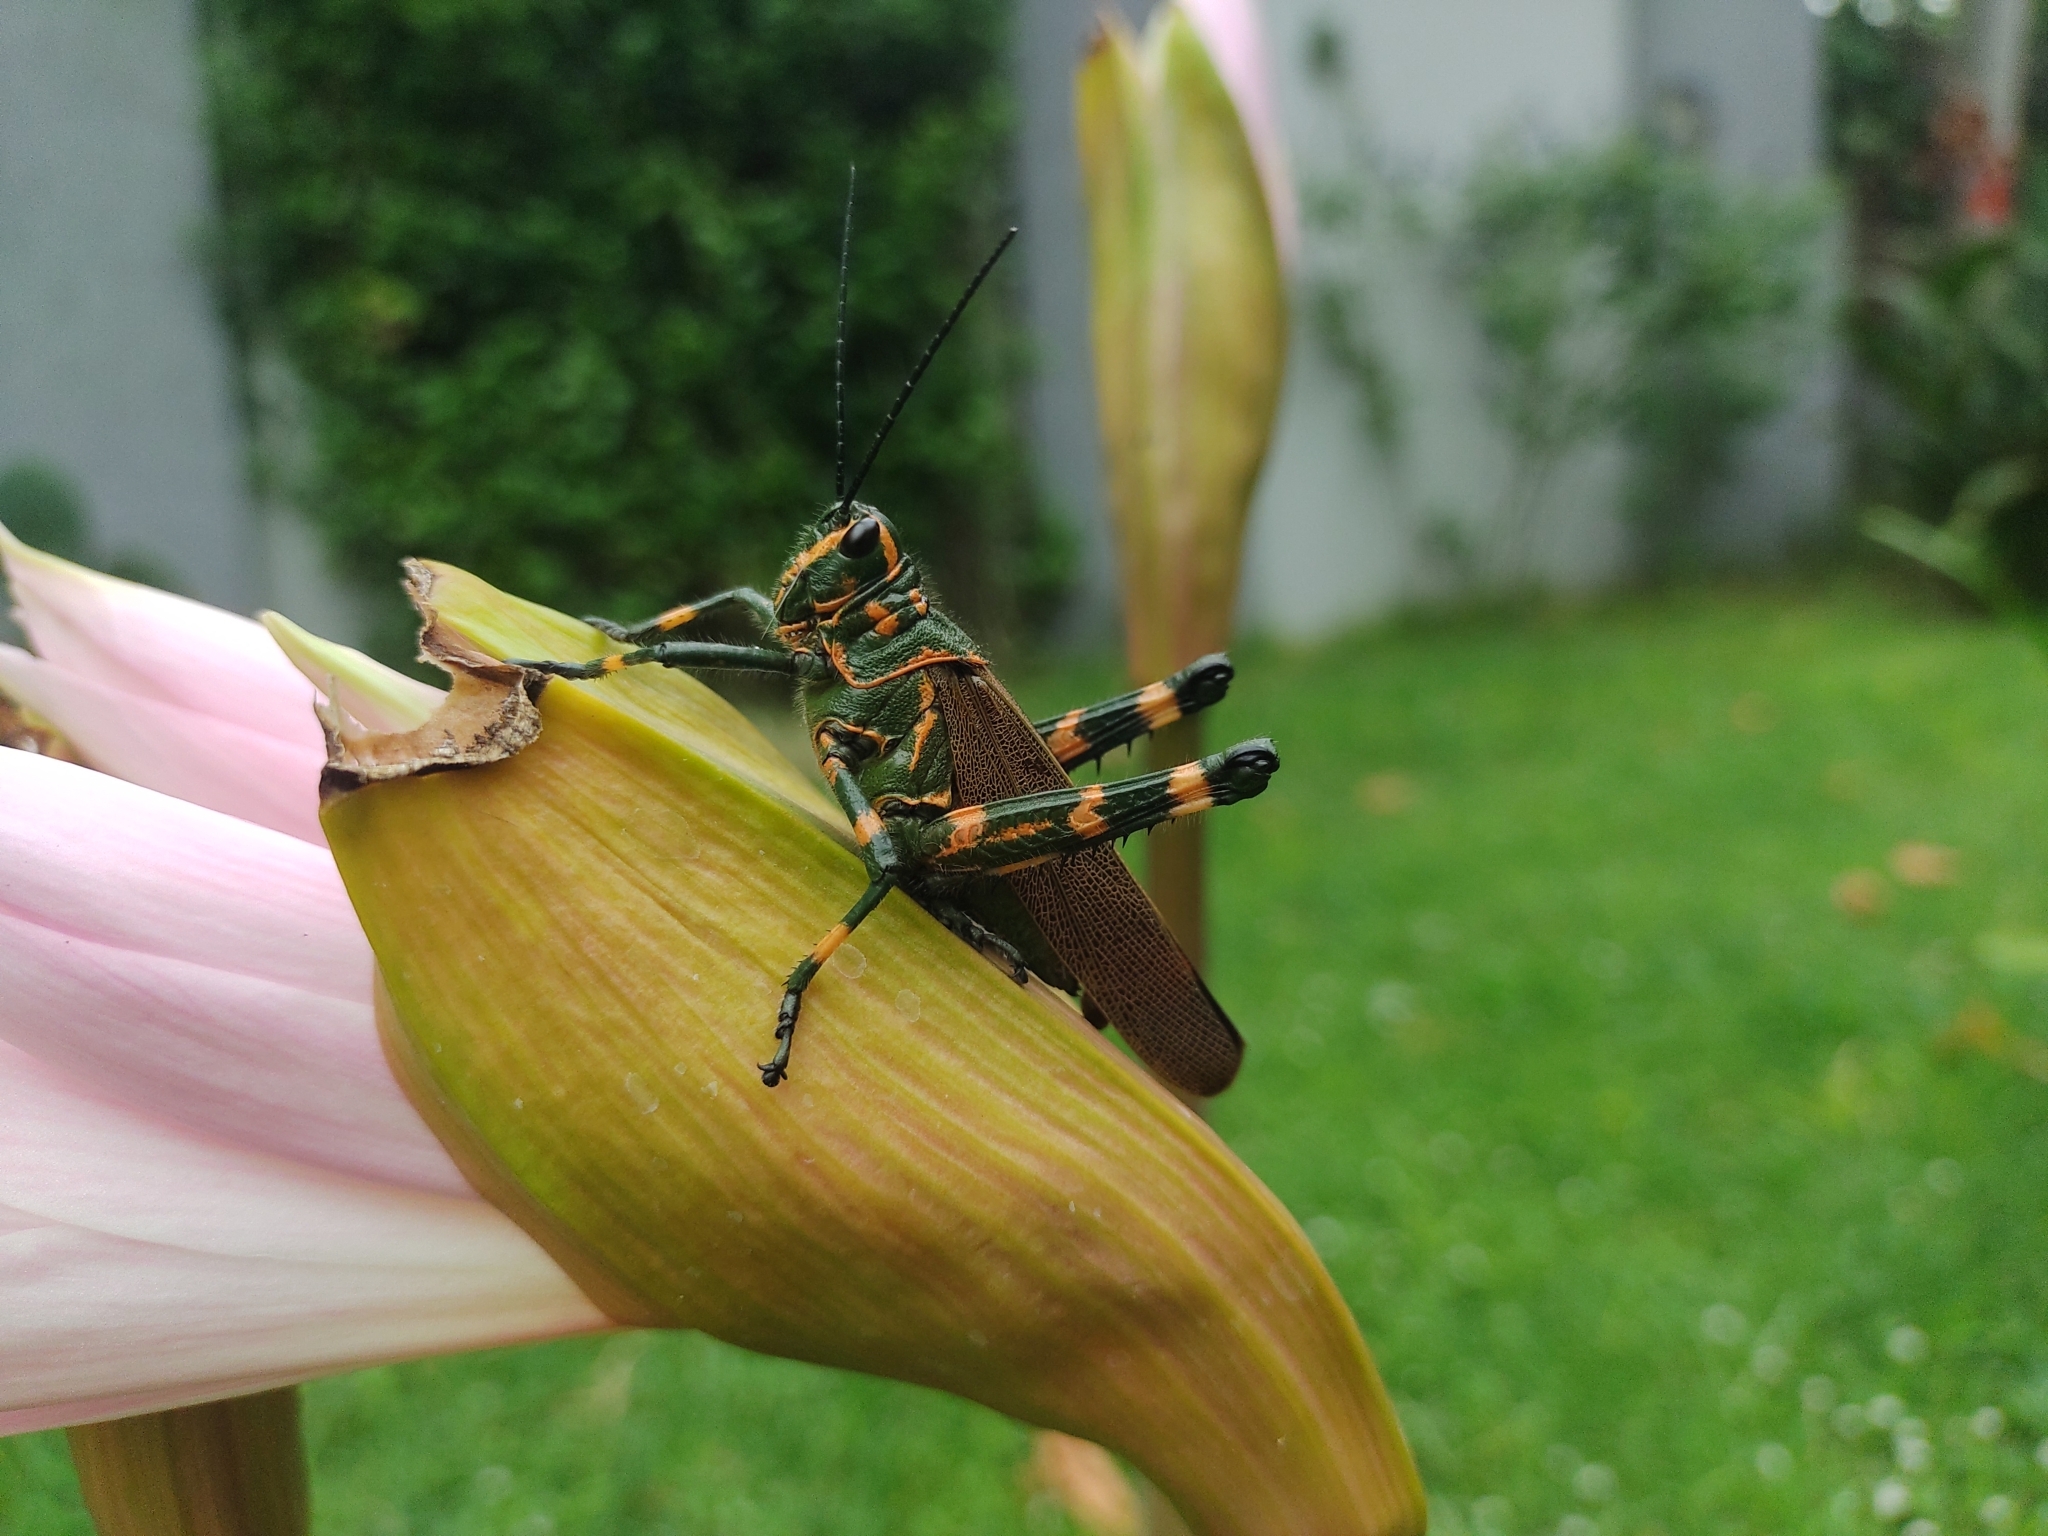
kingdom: Animalia
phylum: Arthropoda
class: Insecta
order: Orthoptera
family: Romaleidae
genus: Chromacris
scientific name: Chromacris speciosa
